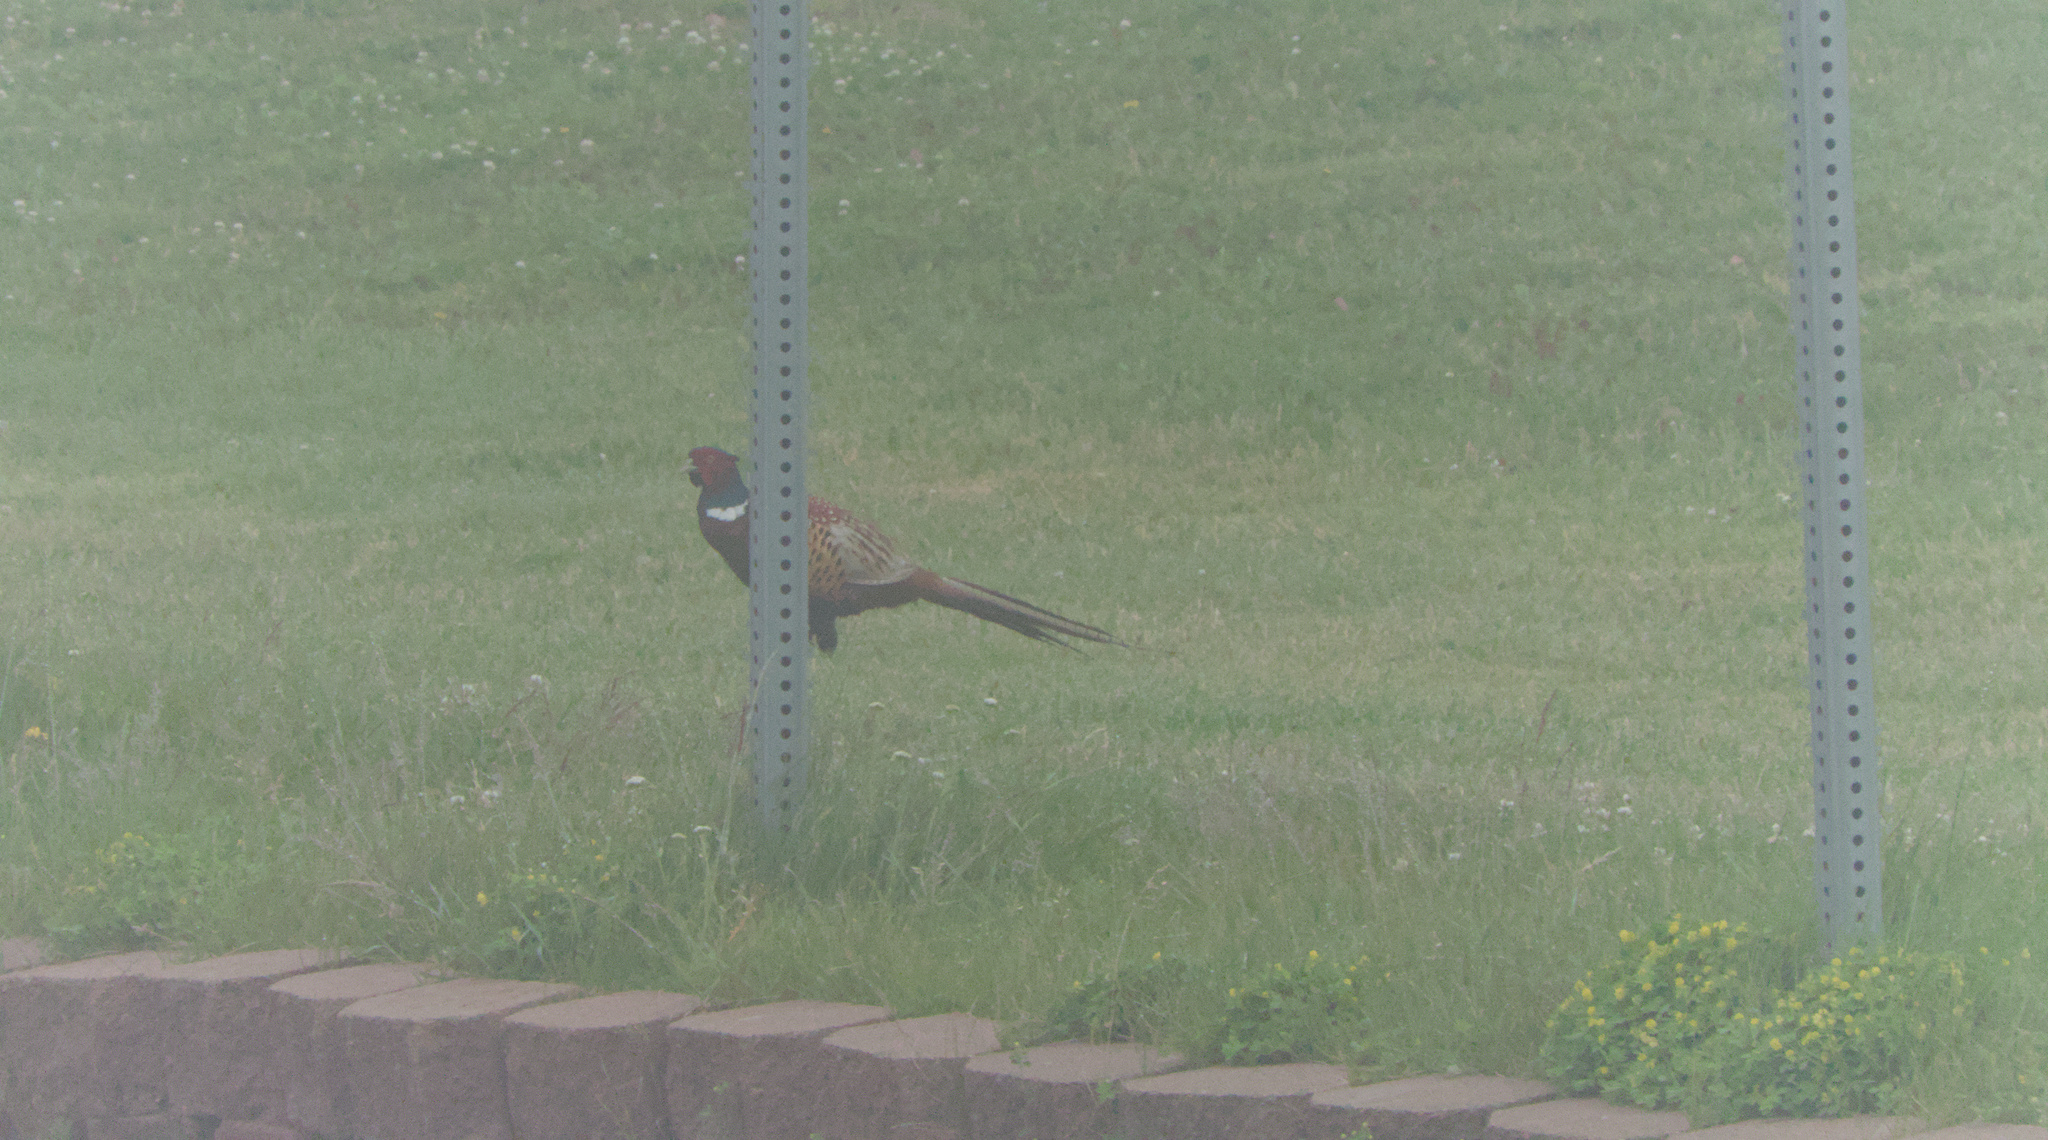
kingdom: Animalia
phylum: Chordata
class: Aves
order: Galliformes
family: Phasianidae
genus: Phasianus
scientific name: Phasianus colchicus
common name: Common pheasant
